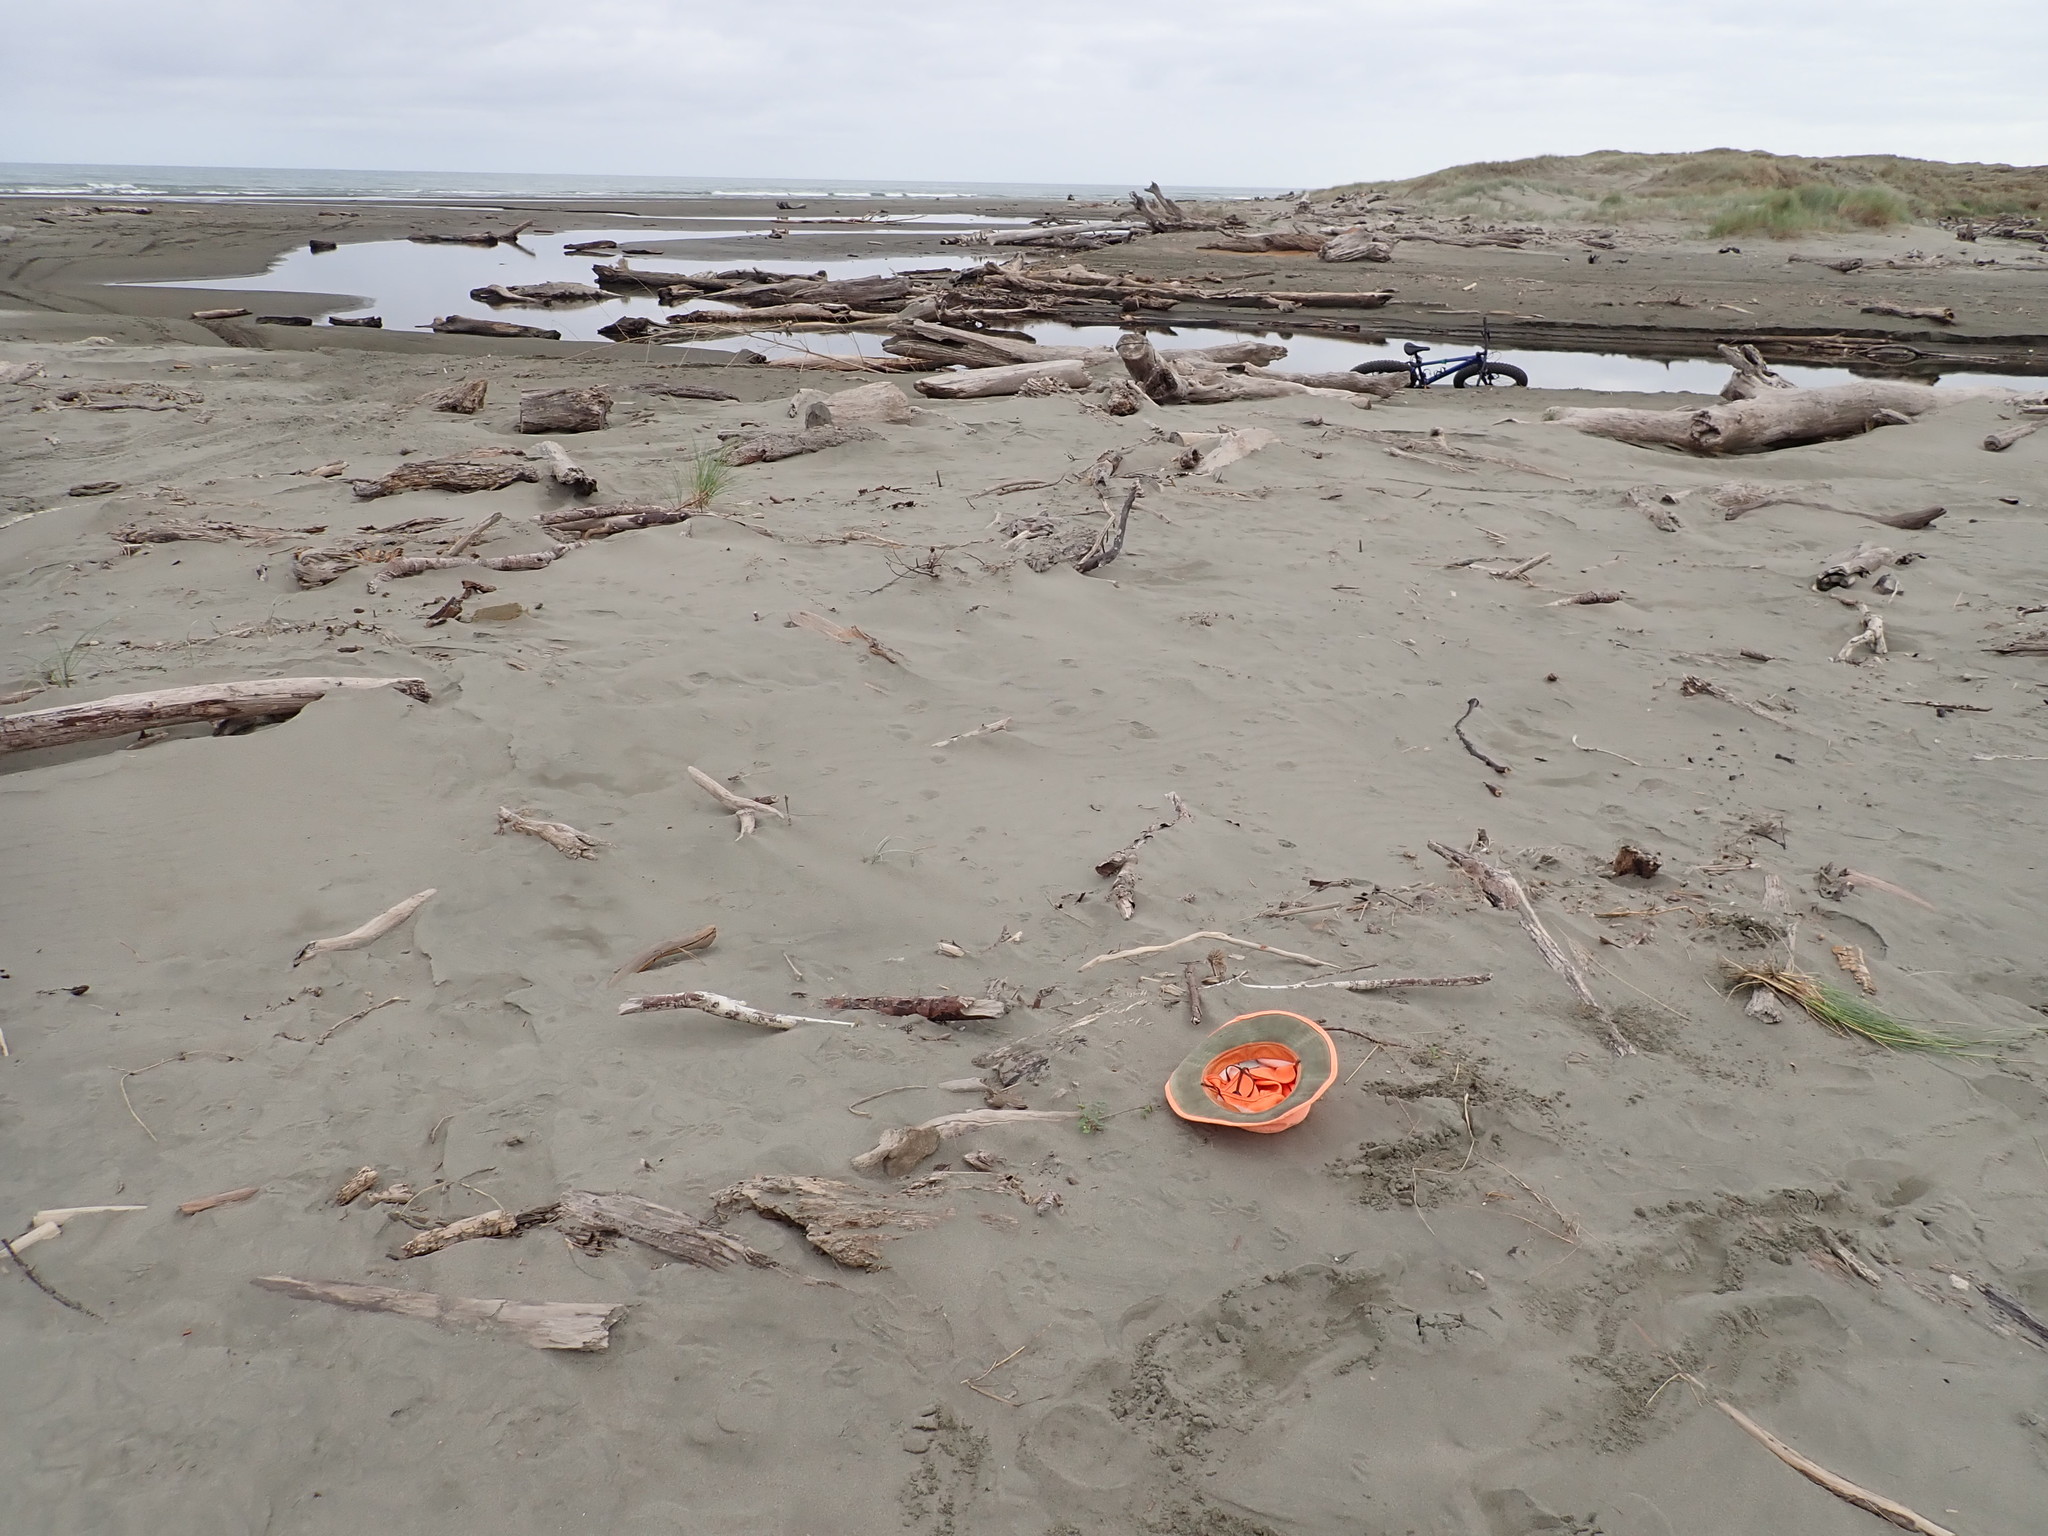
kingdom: Plantae
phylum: Tracheophyta
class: Magnoliopsida
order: Solanales
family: Convolvulaceae
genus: Calystegia
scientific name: Calystegia soldanella
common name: Sea bindweed
